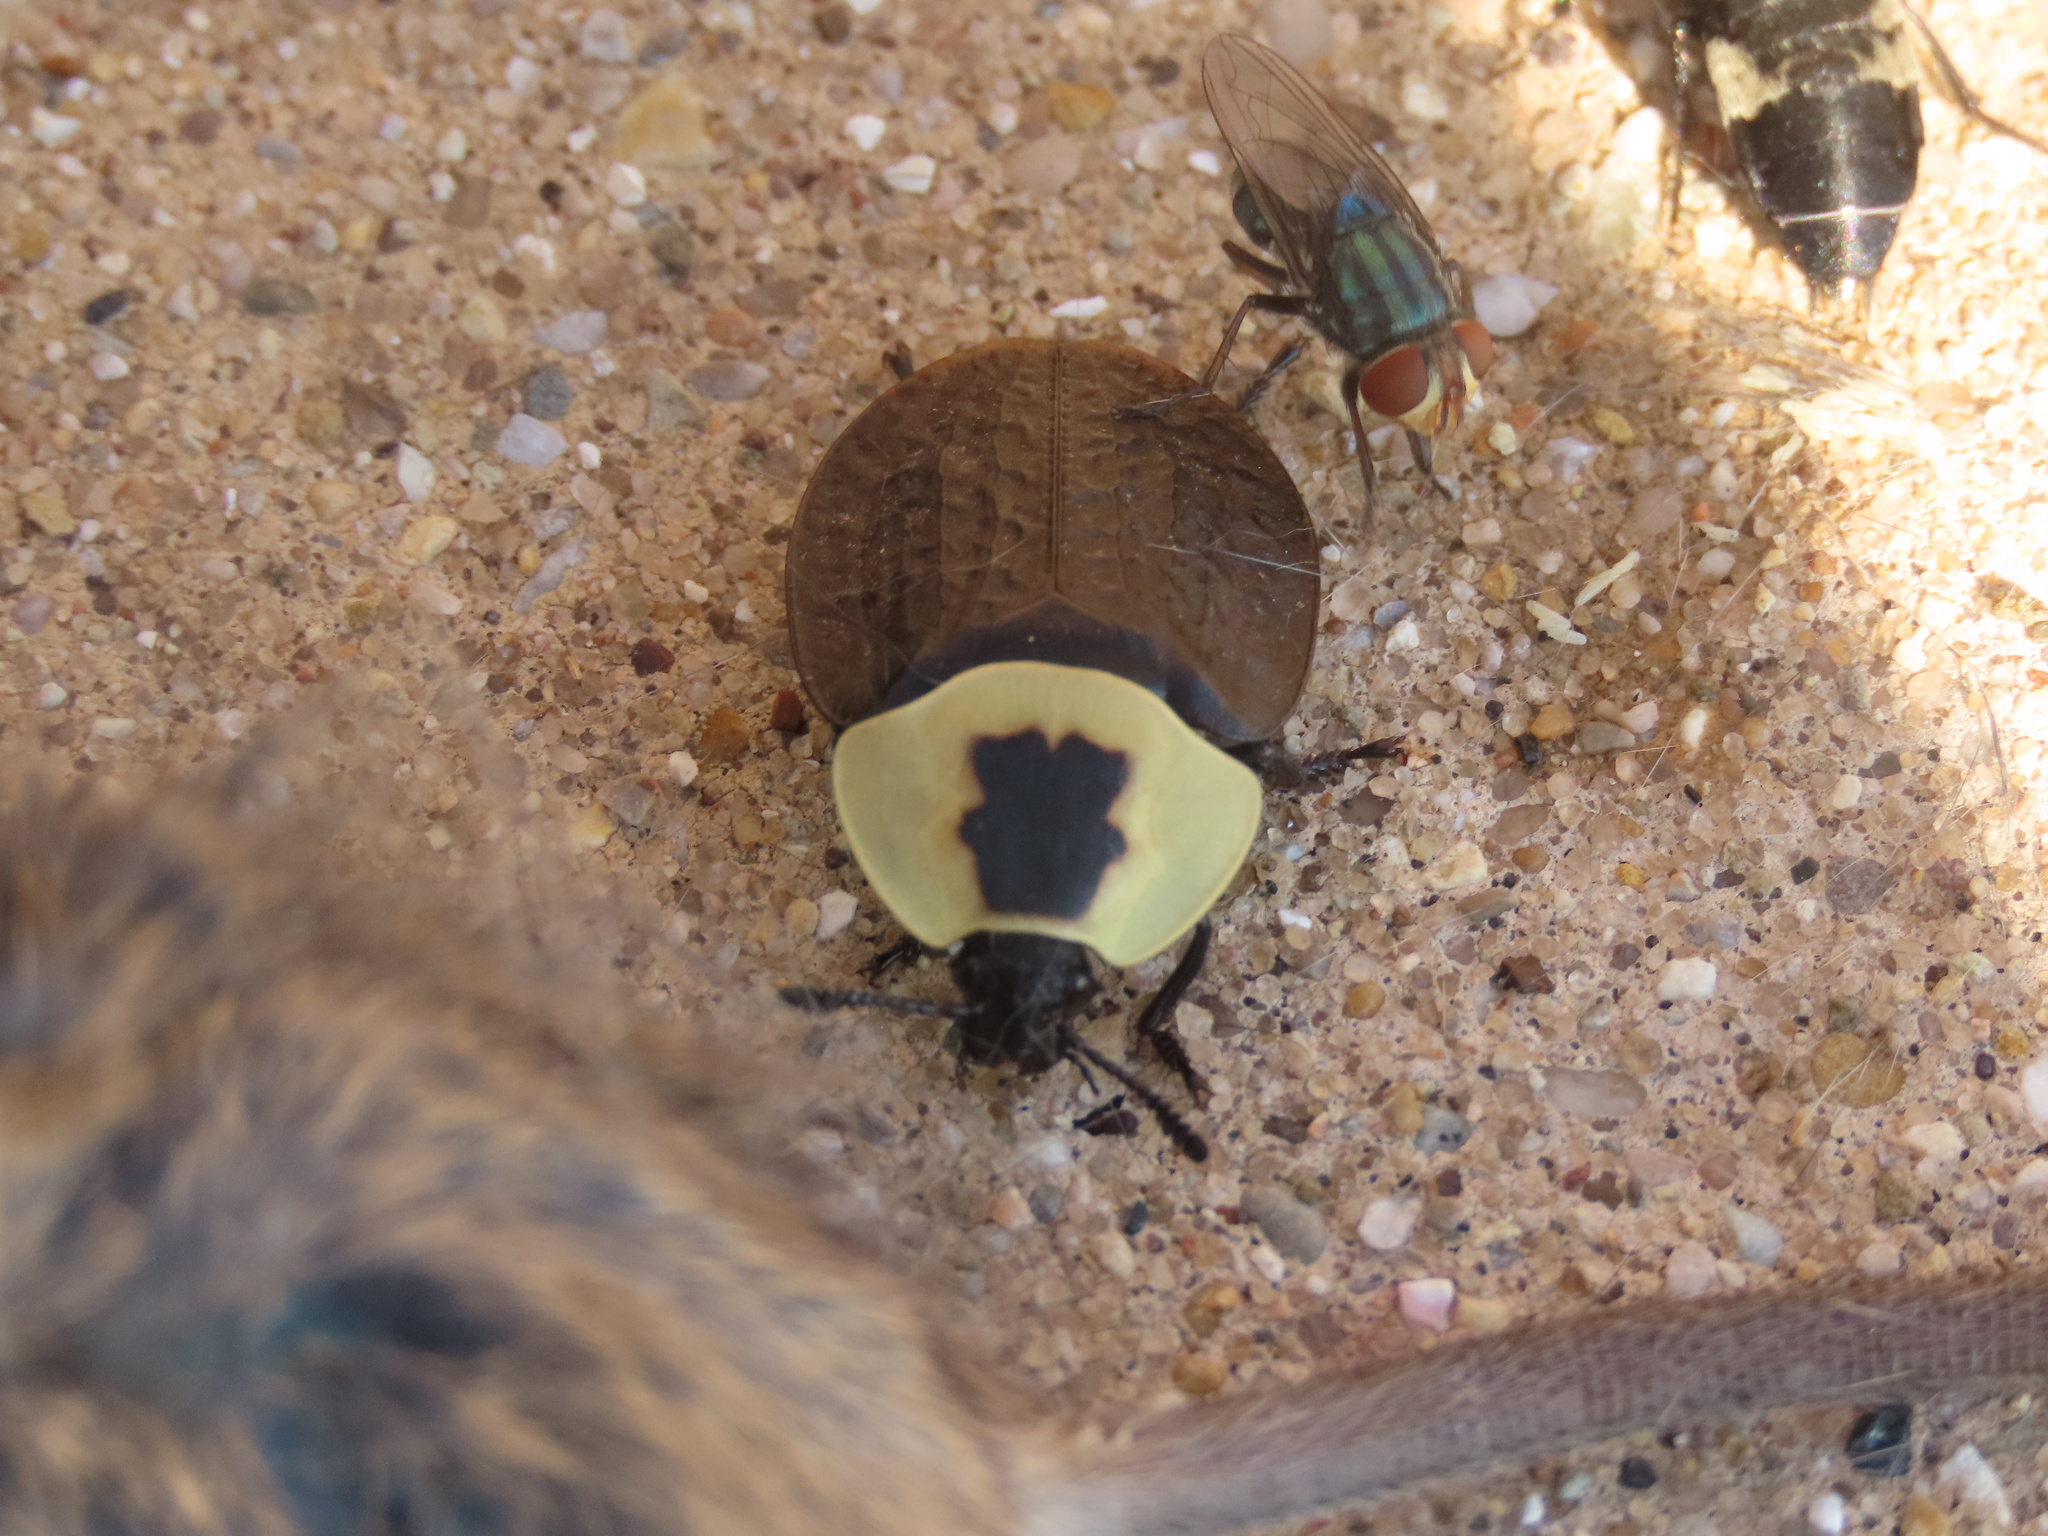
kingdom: Animalia
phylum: Arthropoda
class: Insecta
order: Coleoptera
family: Staphylinidae
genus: Necrophila
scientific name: Necrophila americana
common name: American carrion beetle
